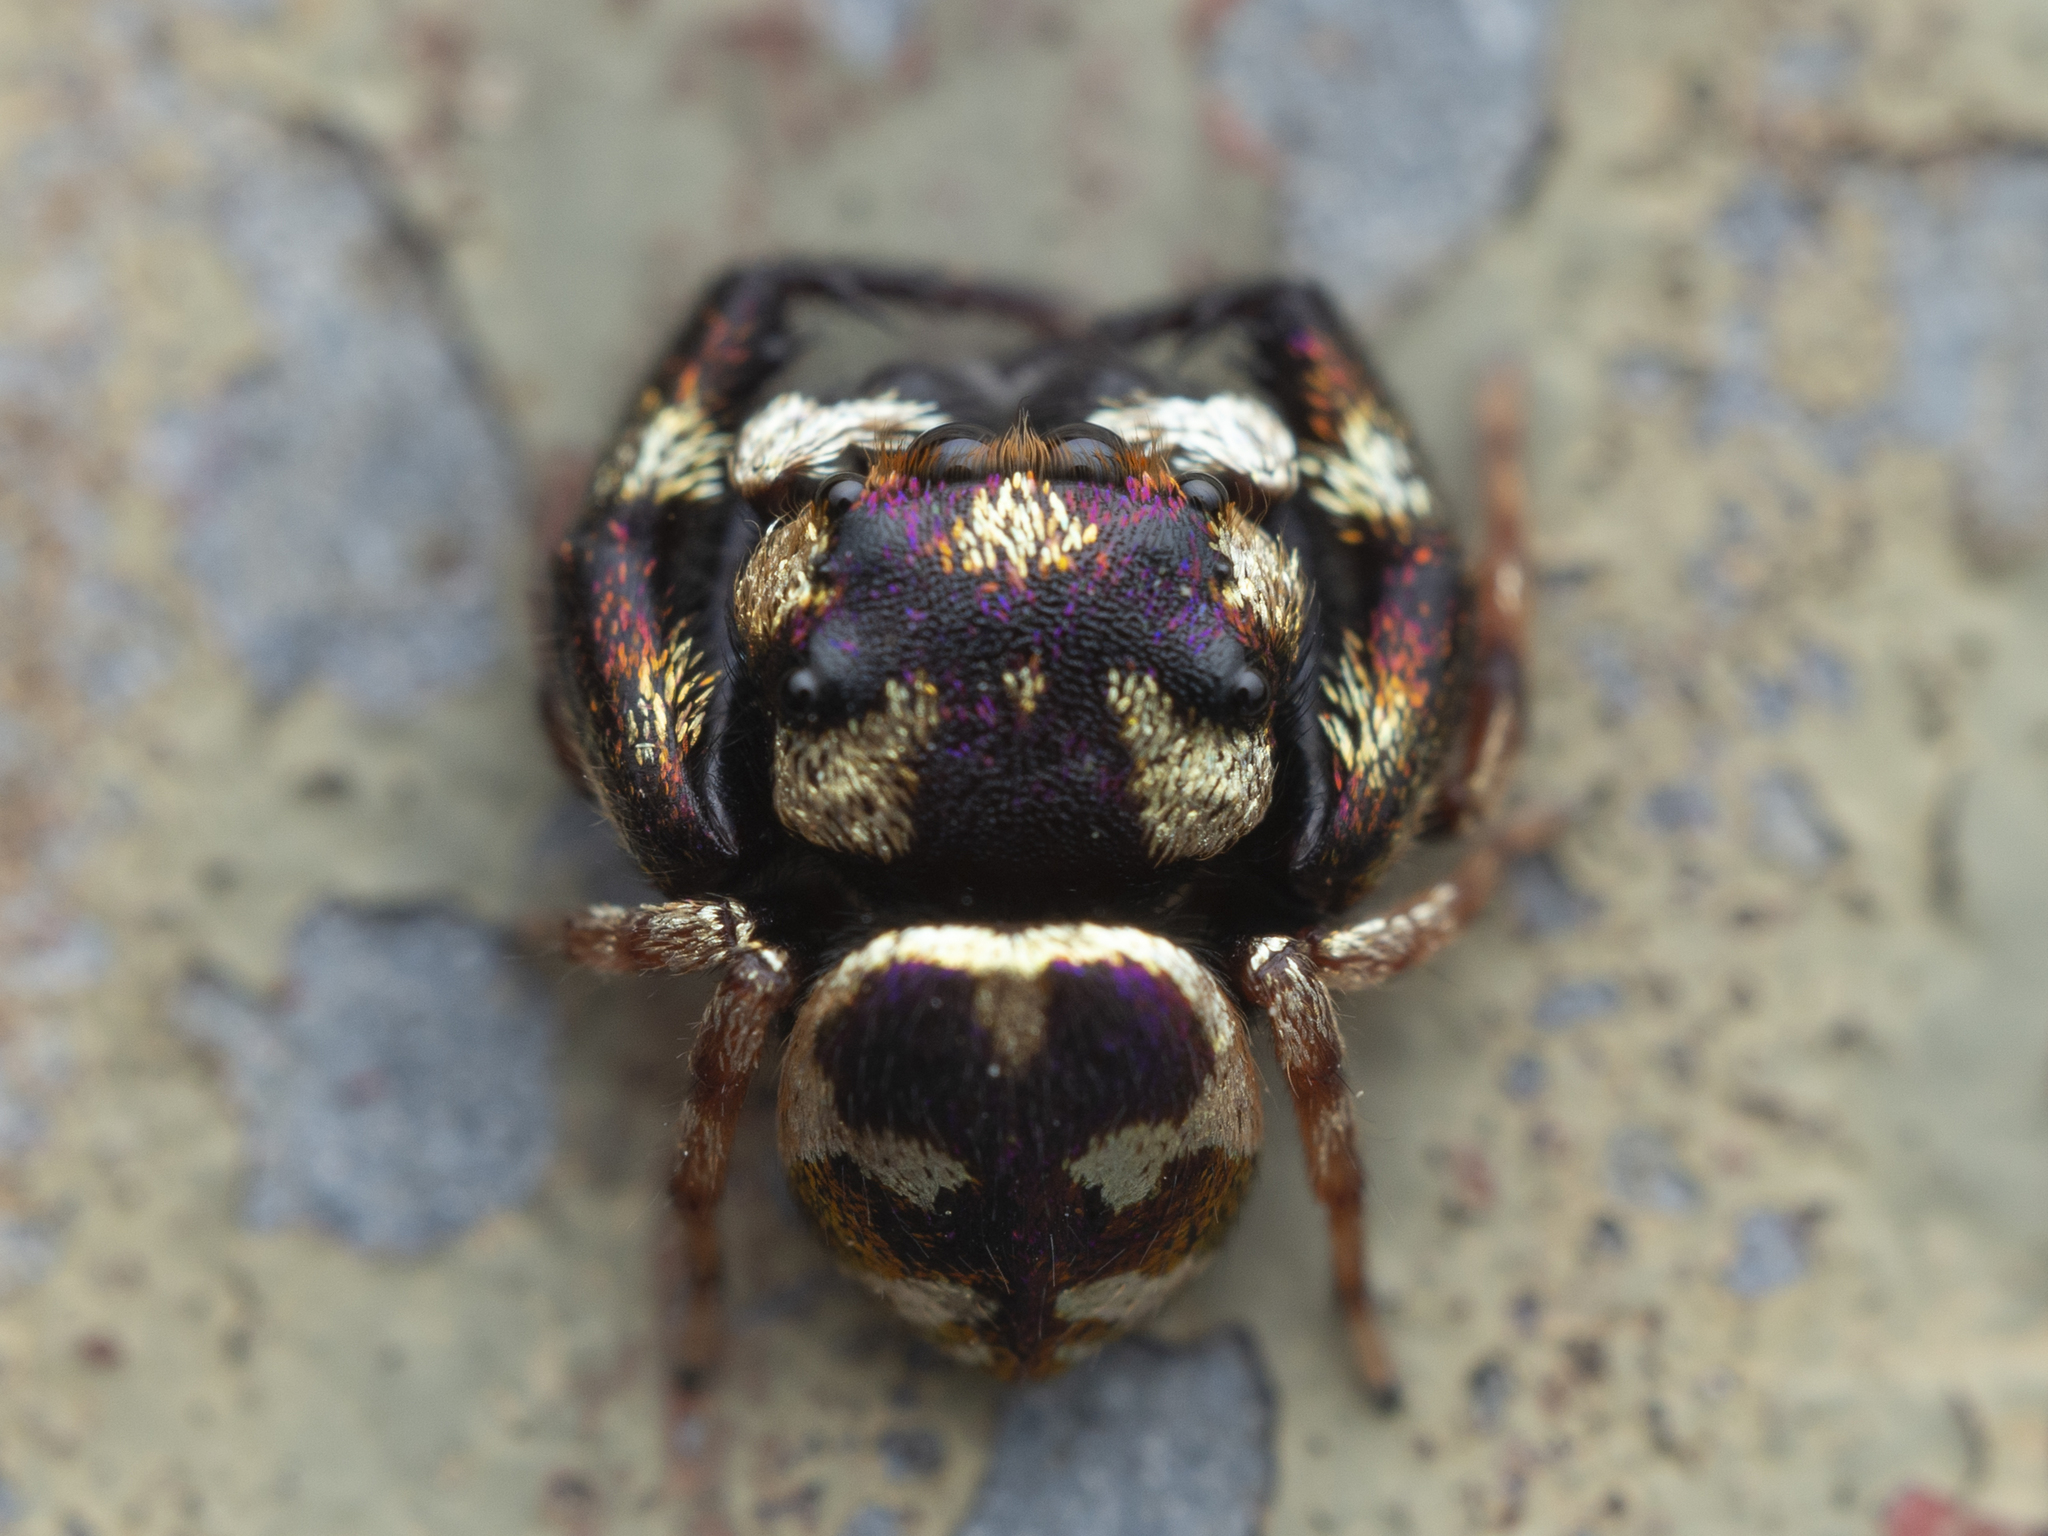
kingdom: Animalia
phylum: Arthropoda
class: Arachnida
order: Araneae
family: Salticidae
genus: Irura
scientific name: Irura bidenticulata
